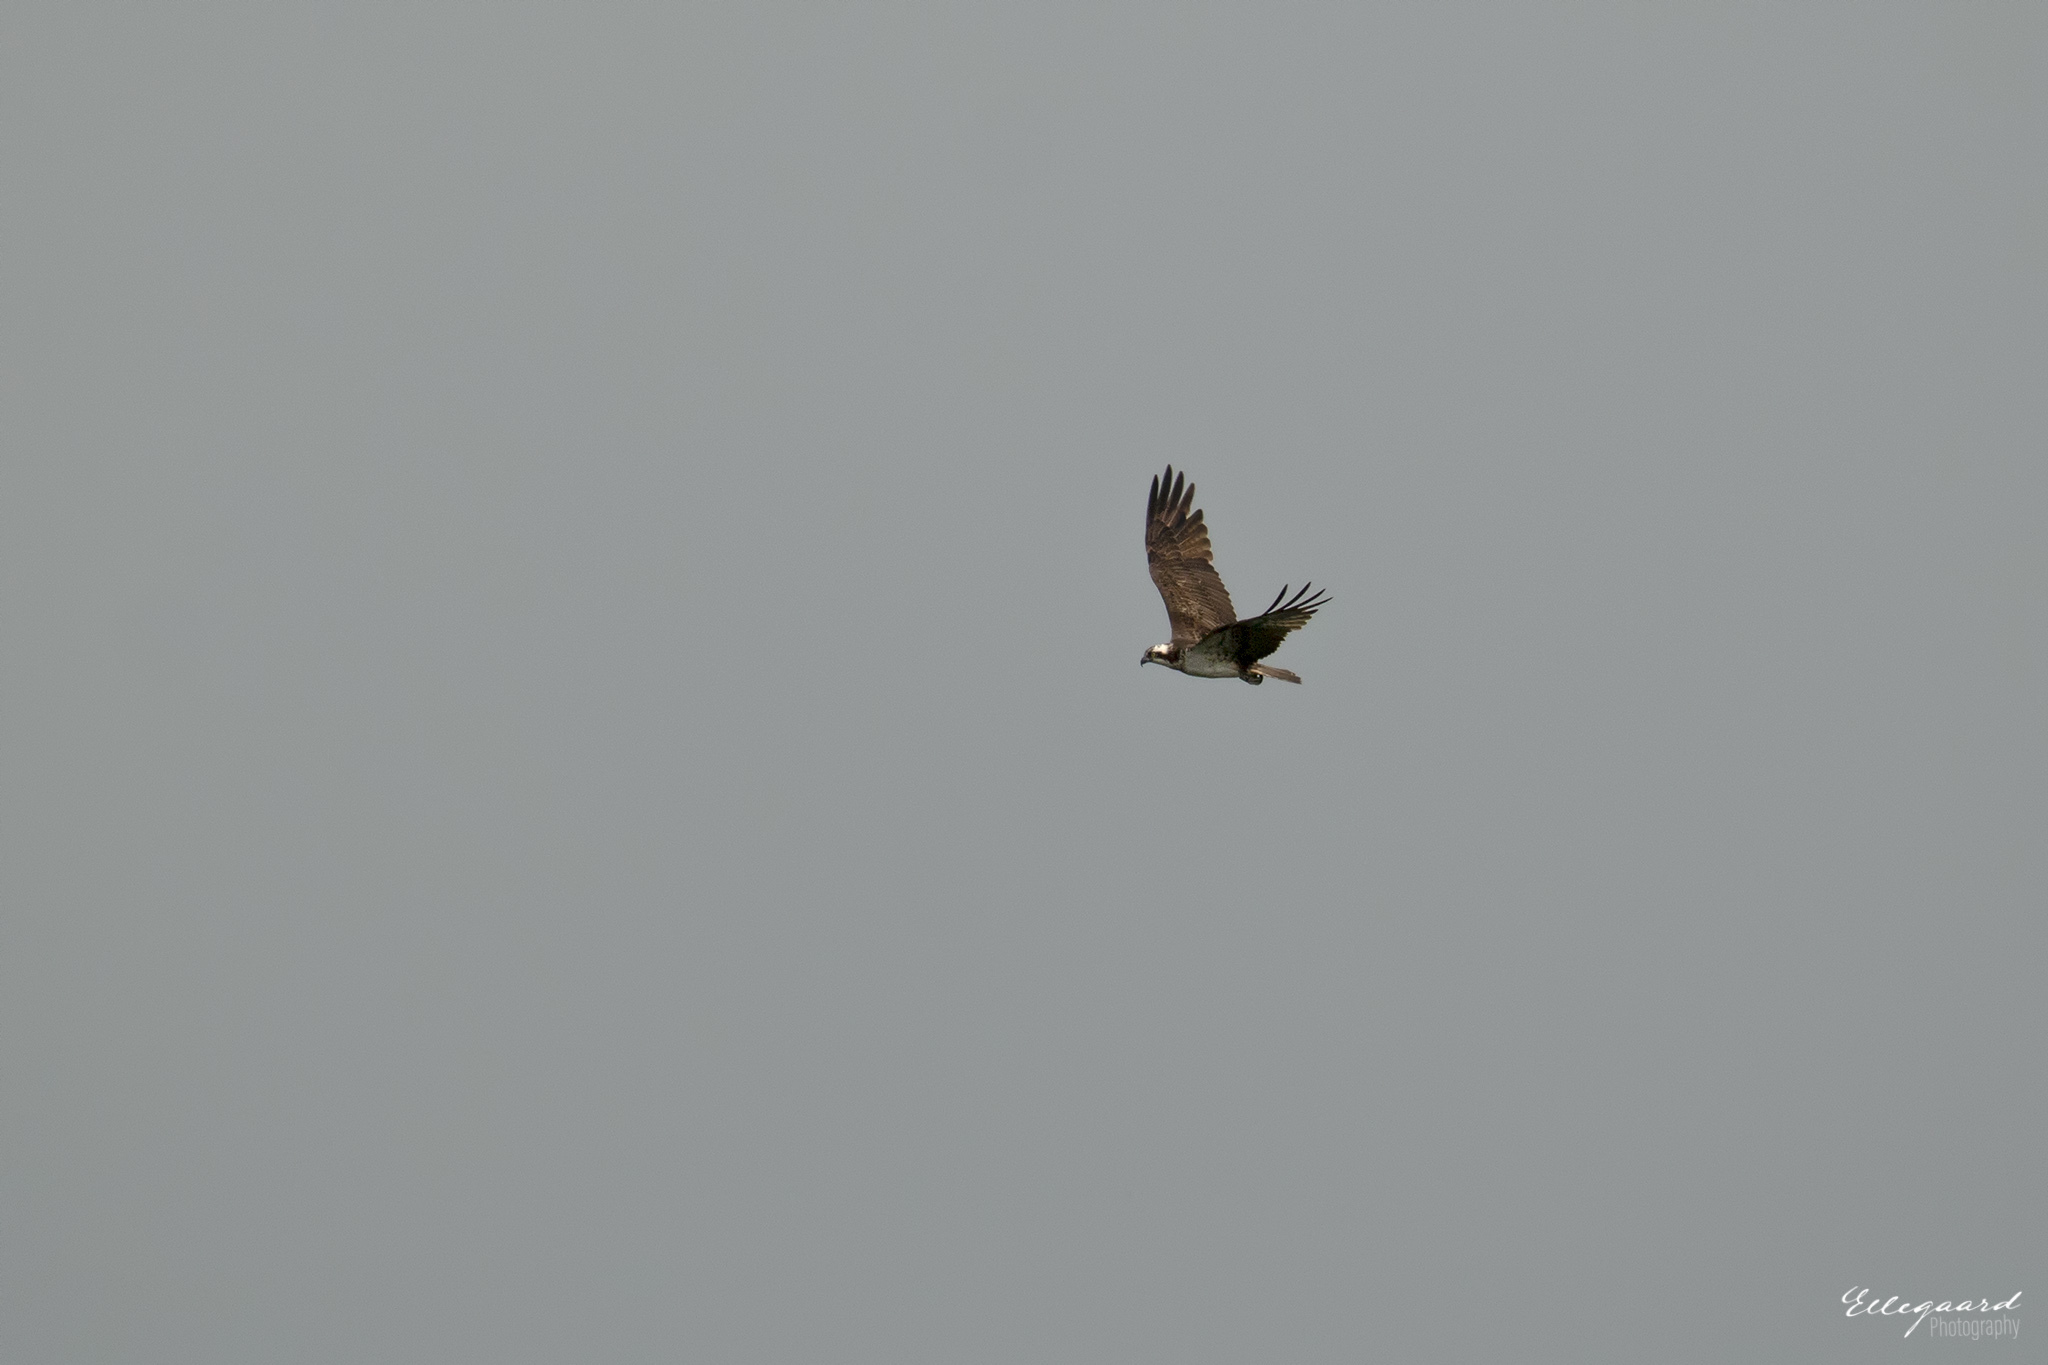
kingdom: Animalia
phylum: Chordata
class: Aves
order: Accipitriformes
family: Pandionidae
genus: Pandion
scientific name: Pandion haliaetus
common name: Osprey
